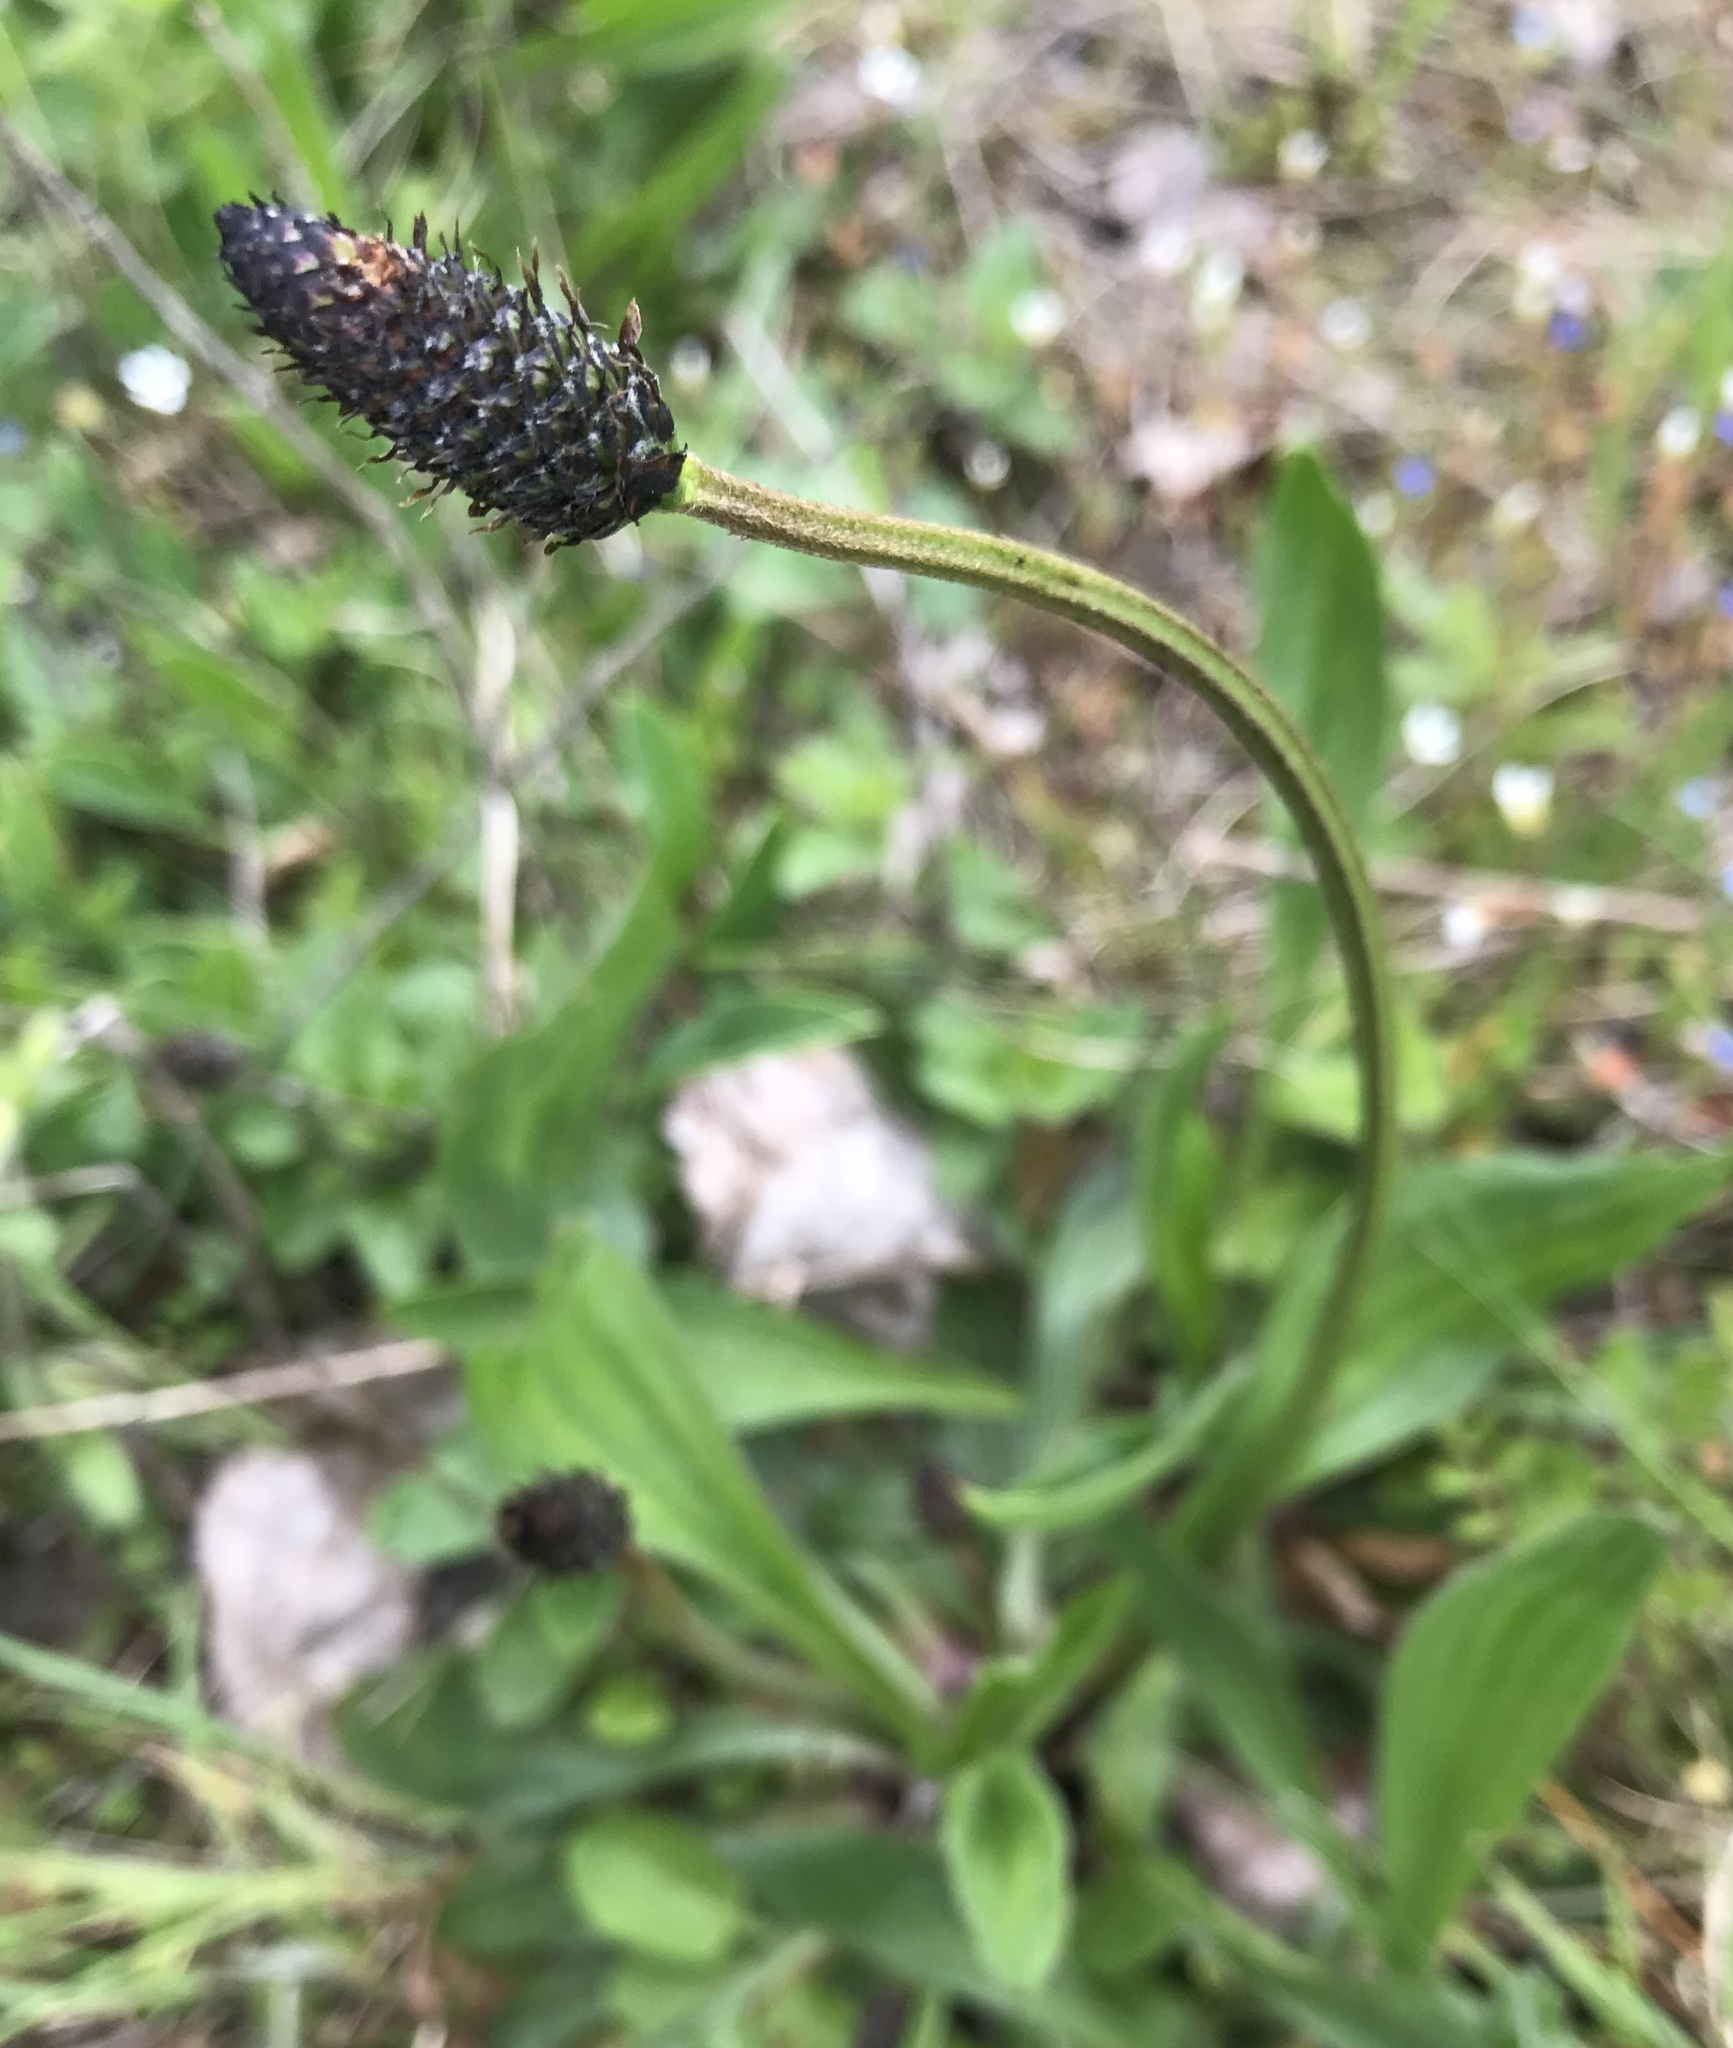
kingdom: Plantae
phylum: Tracheophyta
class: Magnoliopsida
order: Lamiales
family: Plantaginaceae
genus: Plantago
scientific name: Plantago lanceolata
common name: Ribwort plantain
